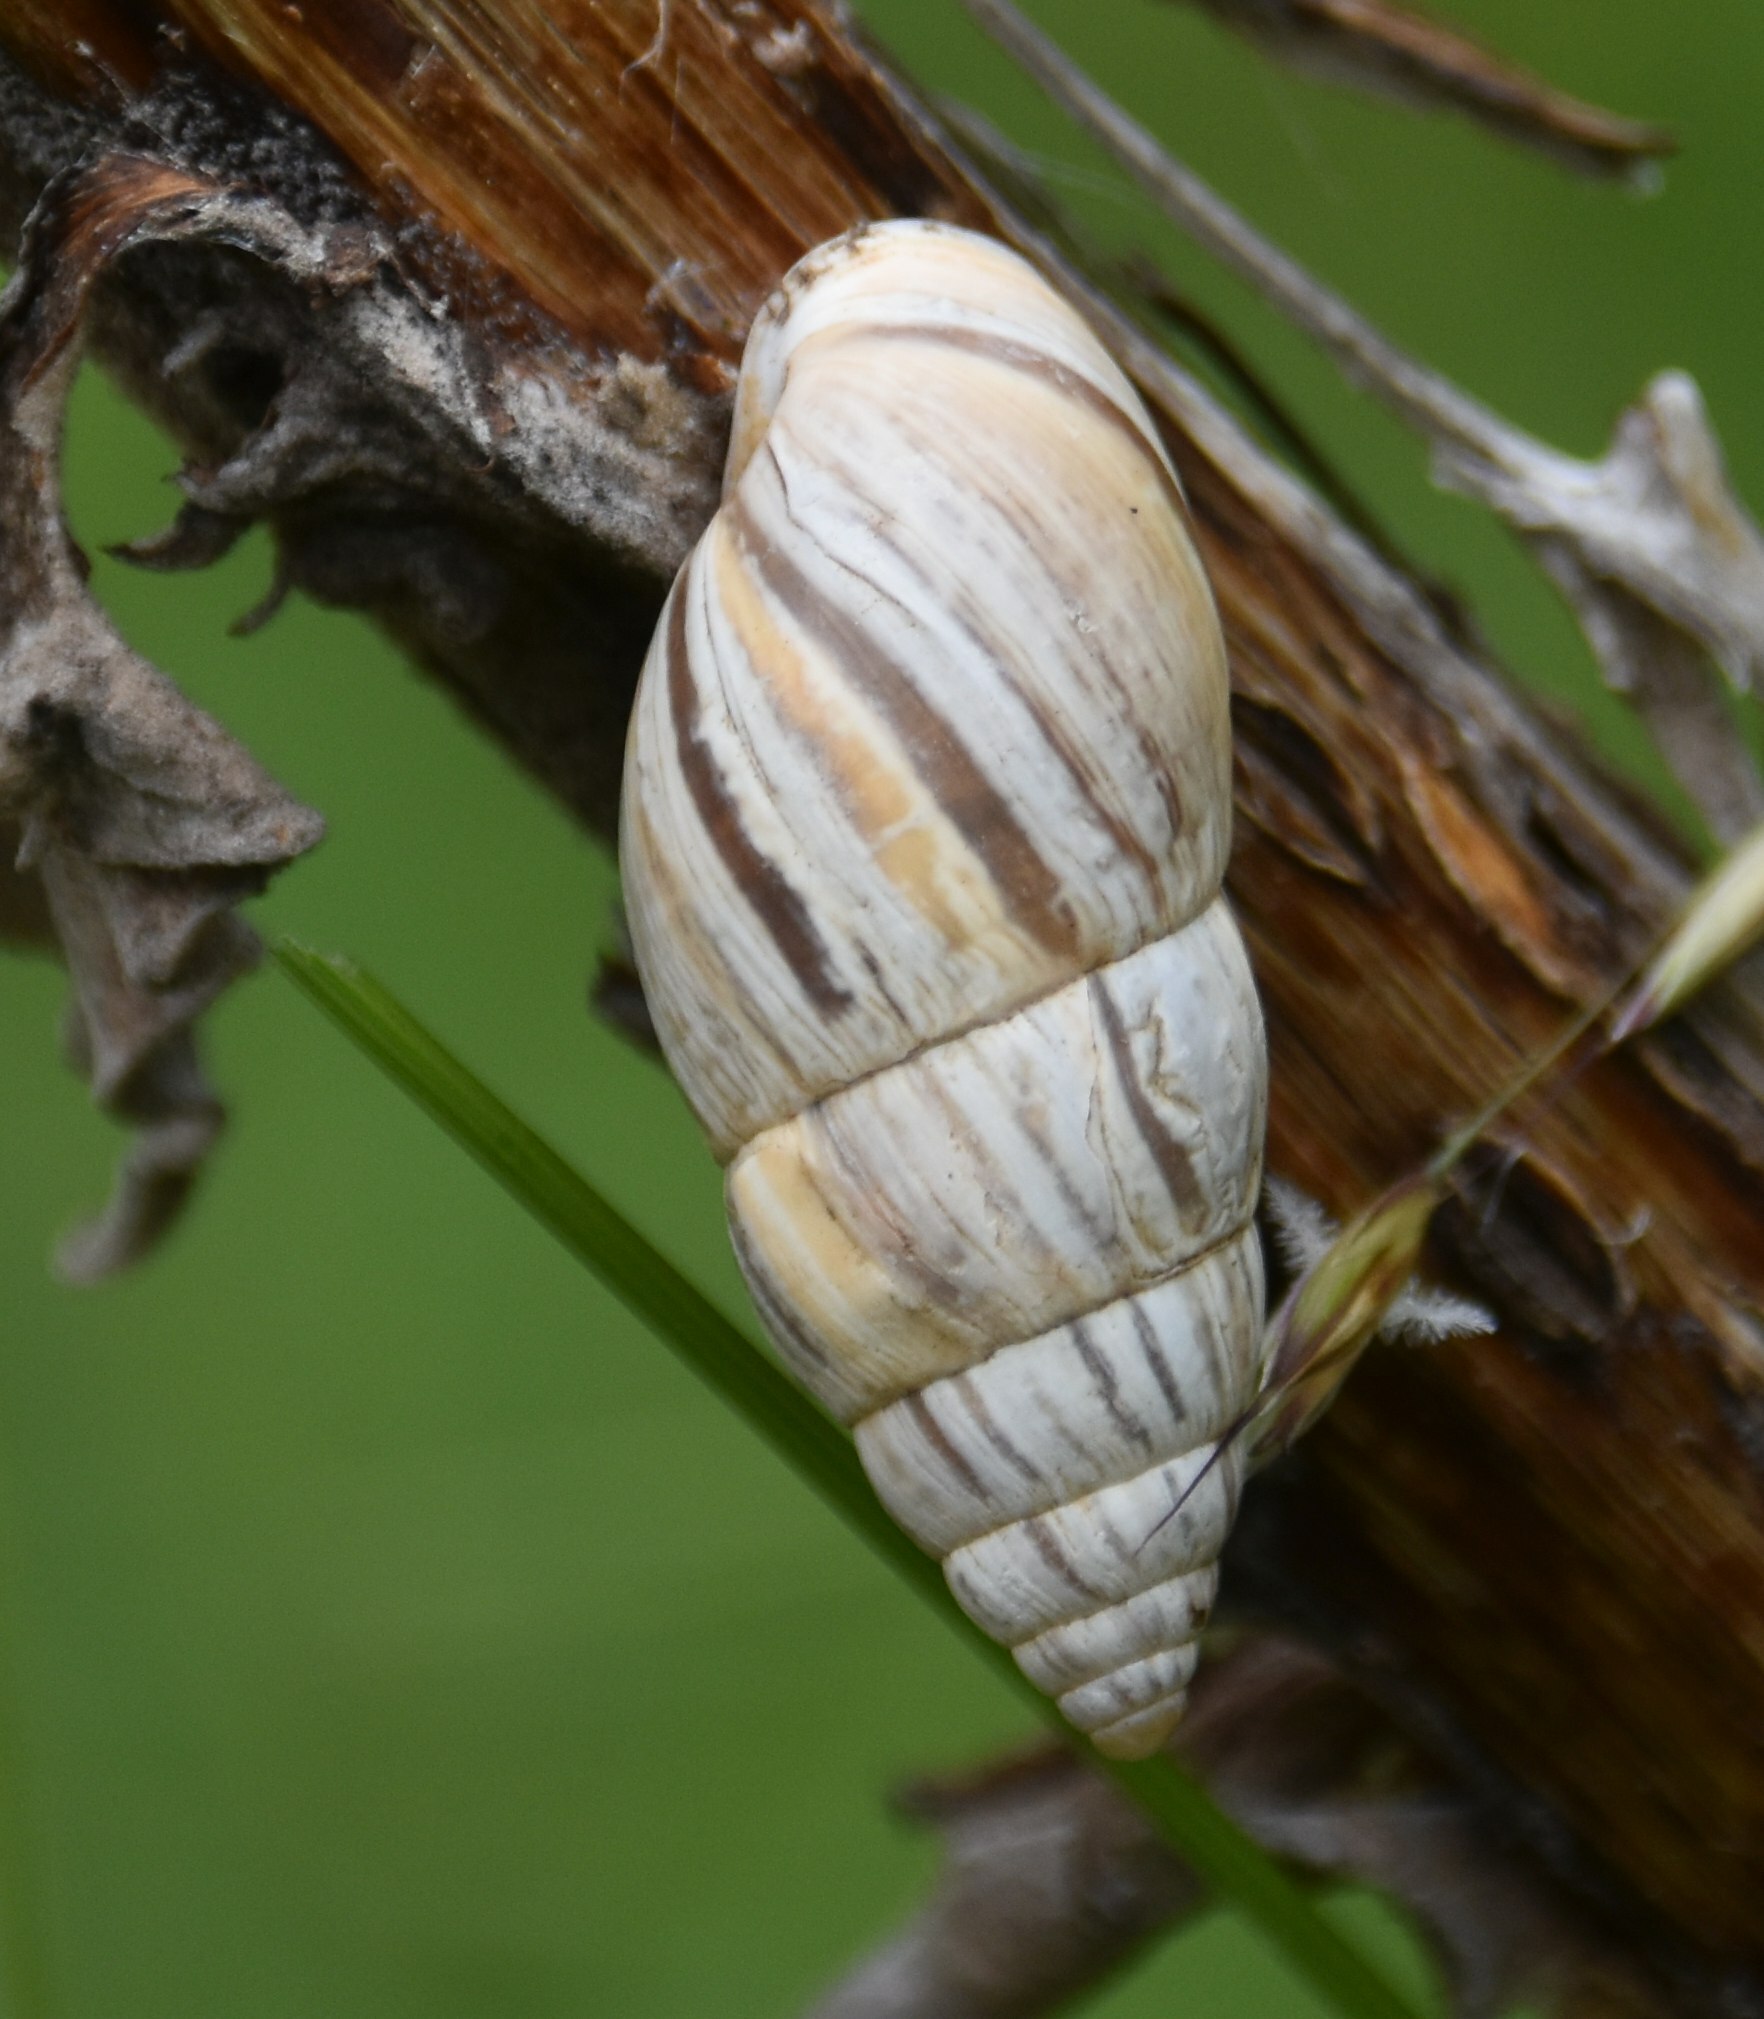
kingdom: Animalia
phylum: Mollusca
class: Gastropoda
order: Stylommatophora
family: Enidae
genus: Zebrina
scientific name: Zebrina detrita
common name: Large bulin
